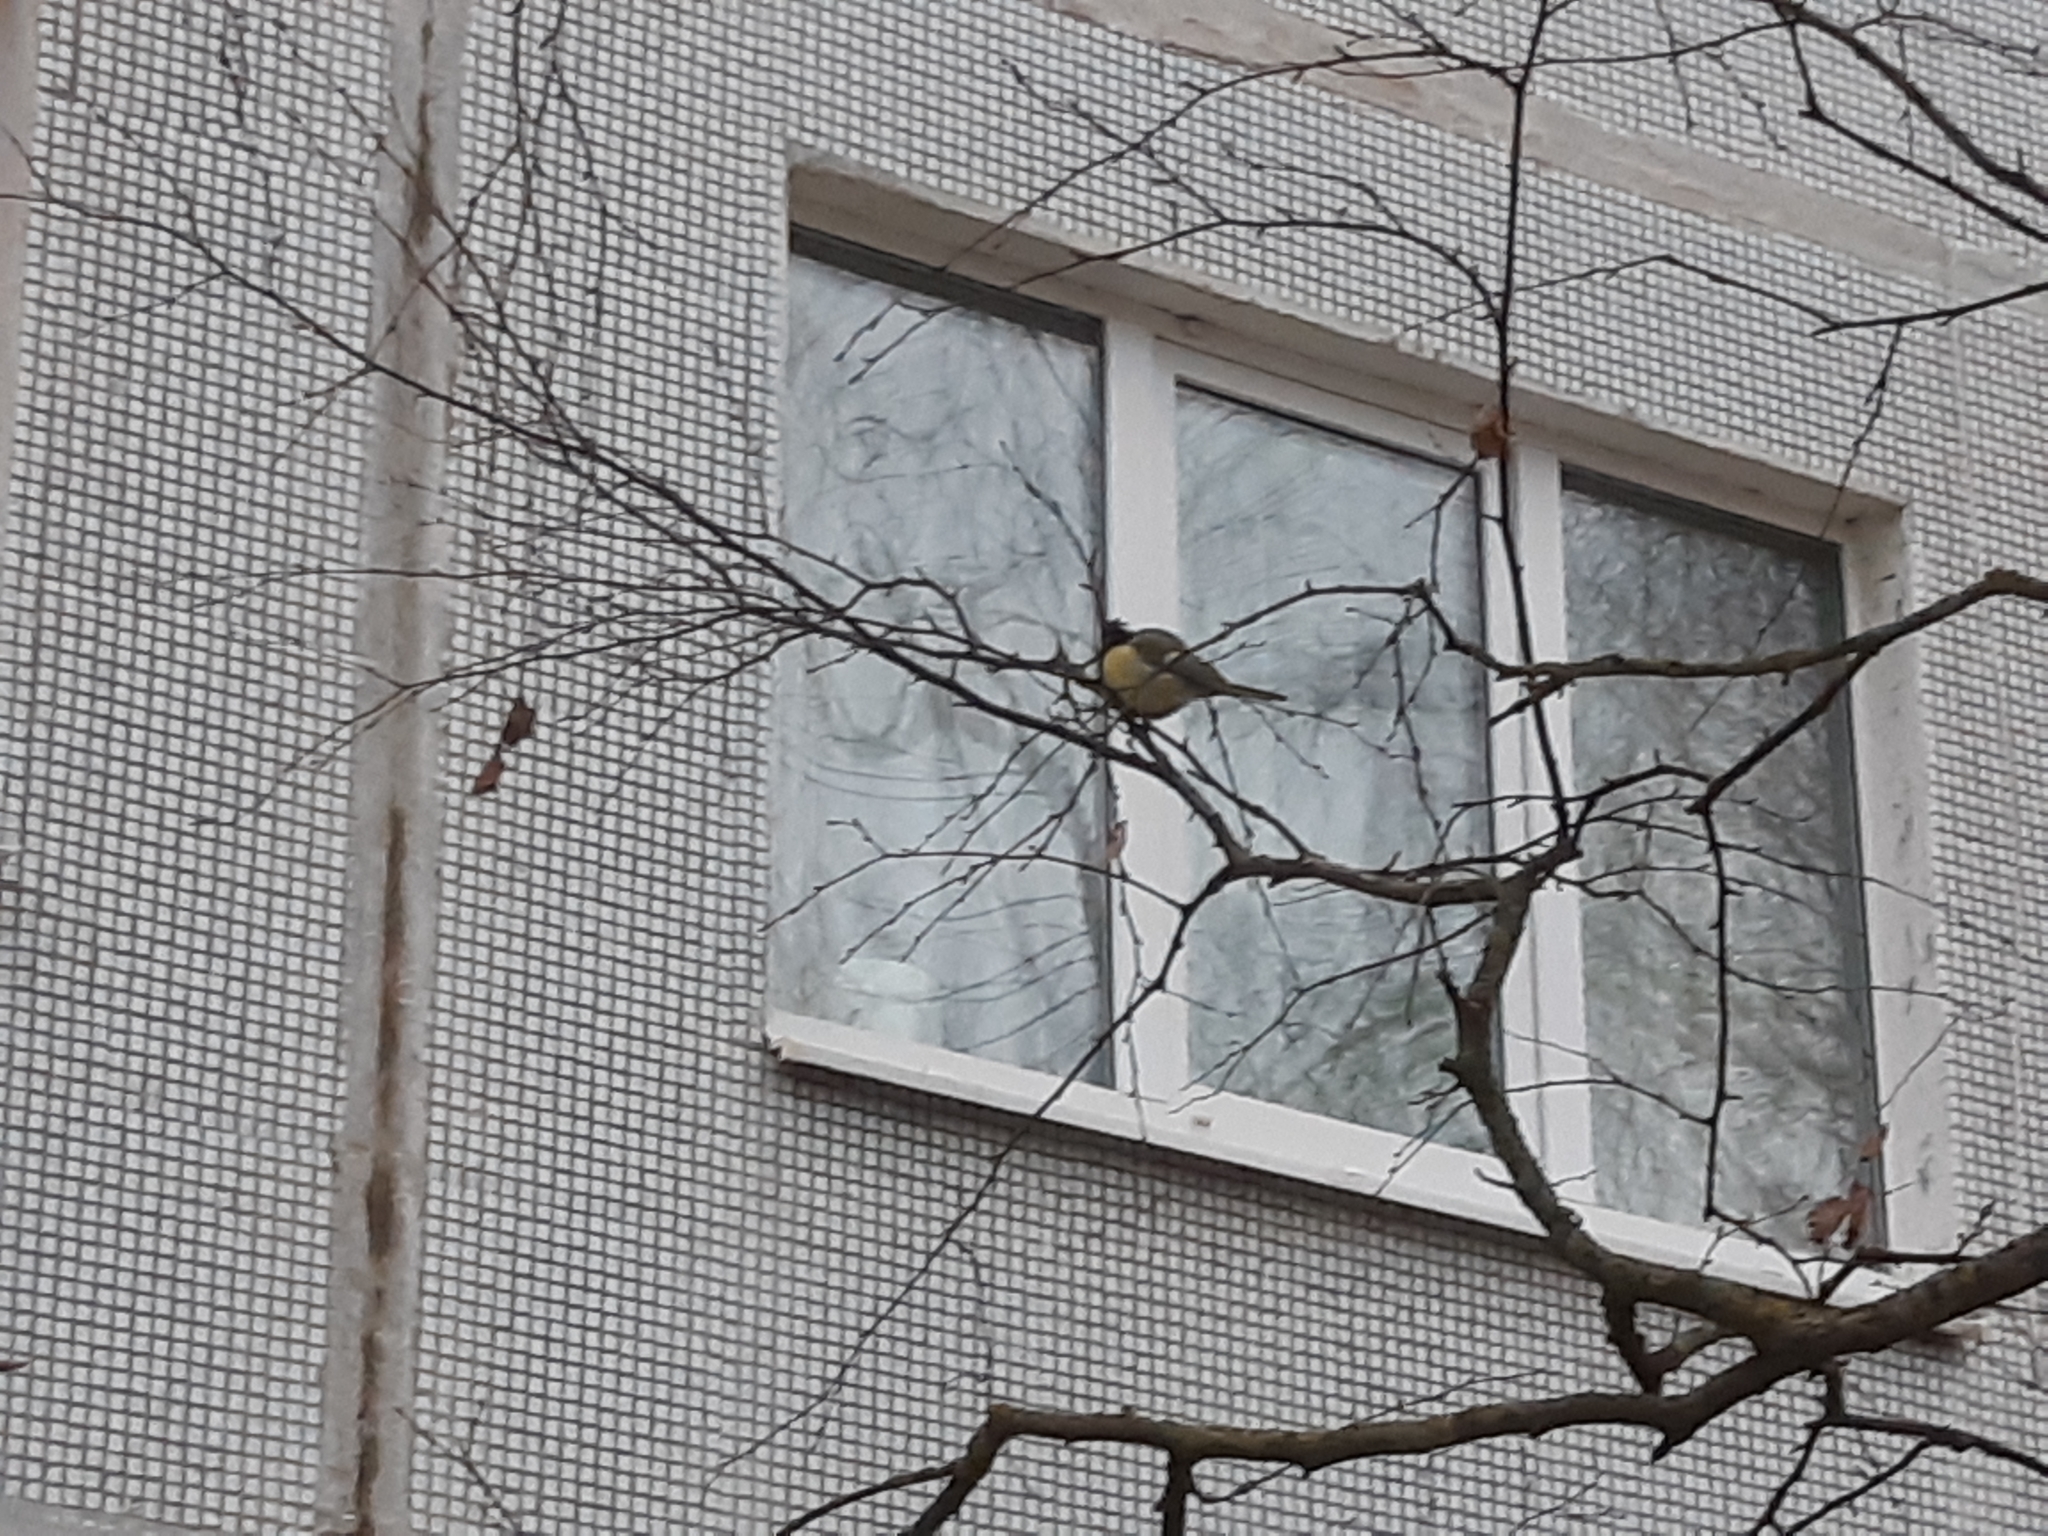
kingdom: Animalia
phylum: Chordata
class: Aves
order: Passeriformes
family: Paridae
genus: Parus
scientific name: Parus major
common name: Great tit
